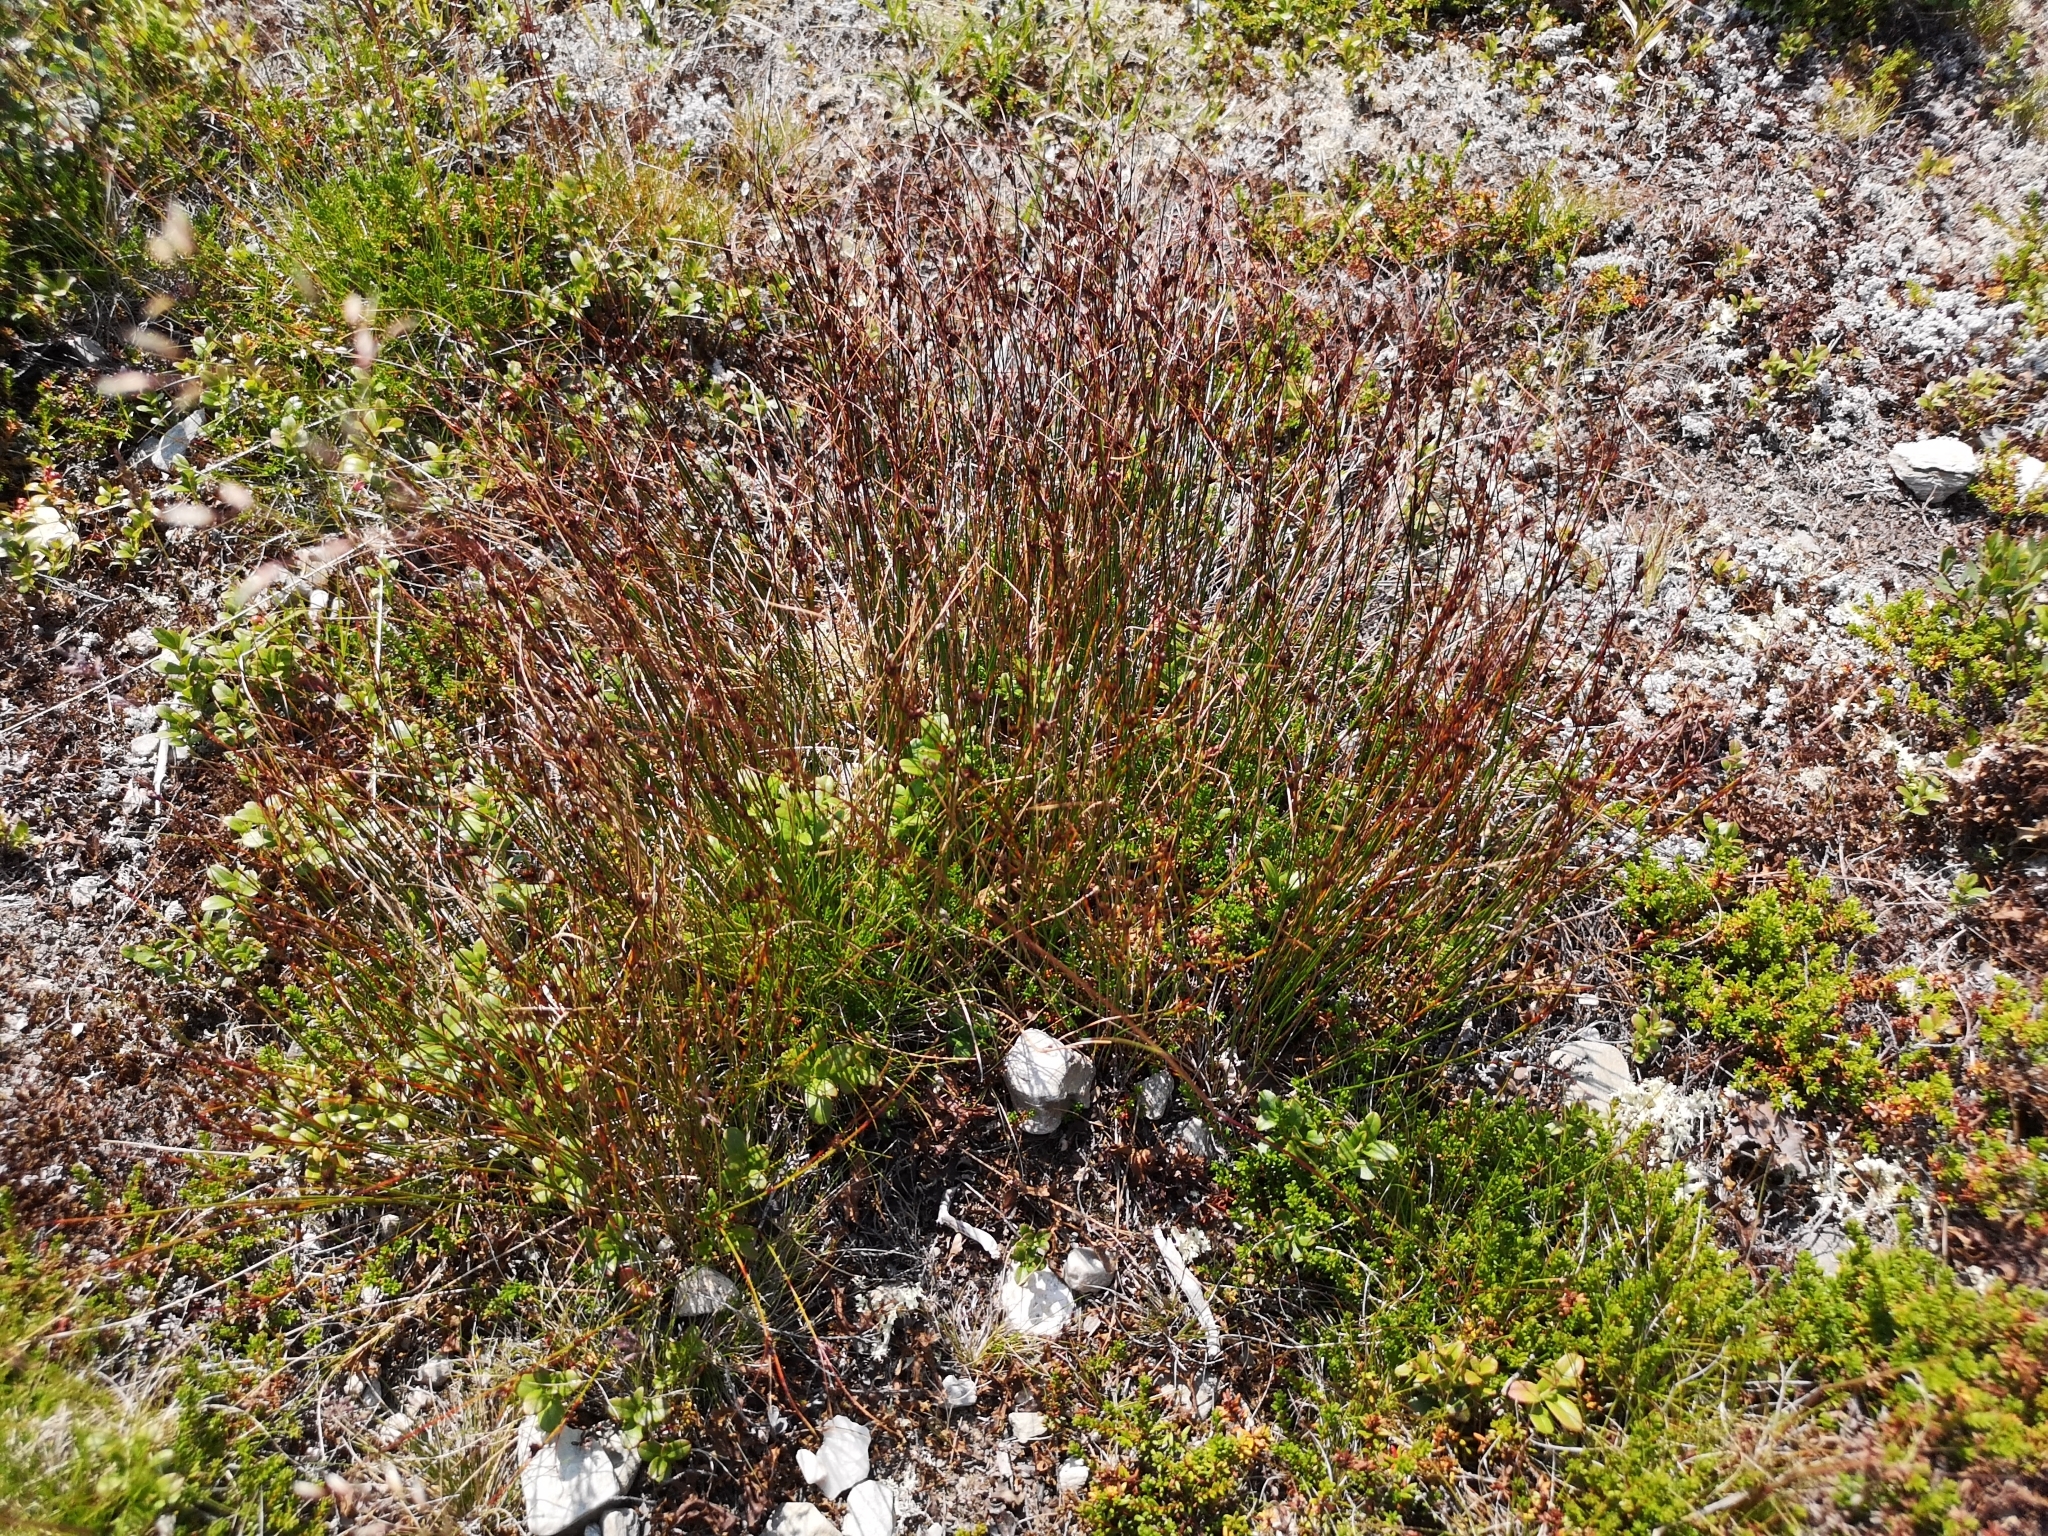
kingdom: Plantae
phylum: Tracheophyta
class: Liliopsida
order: Poales
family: Juncaceae
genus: Oreojuncus
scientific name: Oreojuncus trifidus
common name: Highland rush
